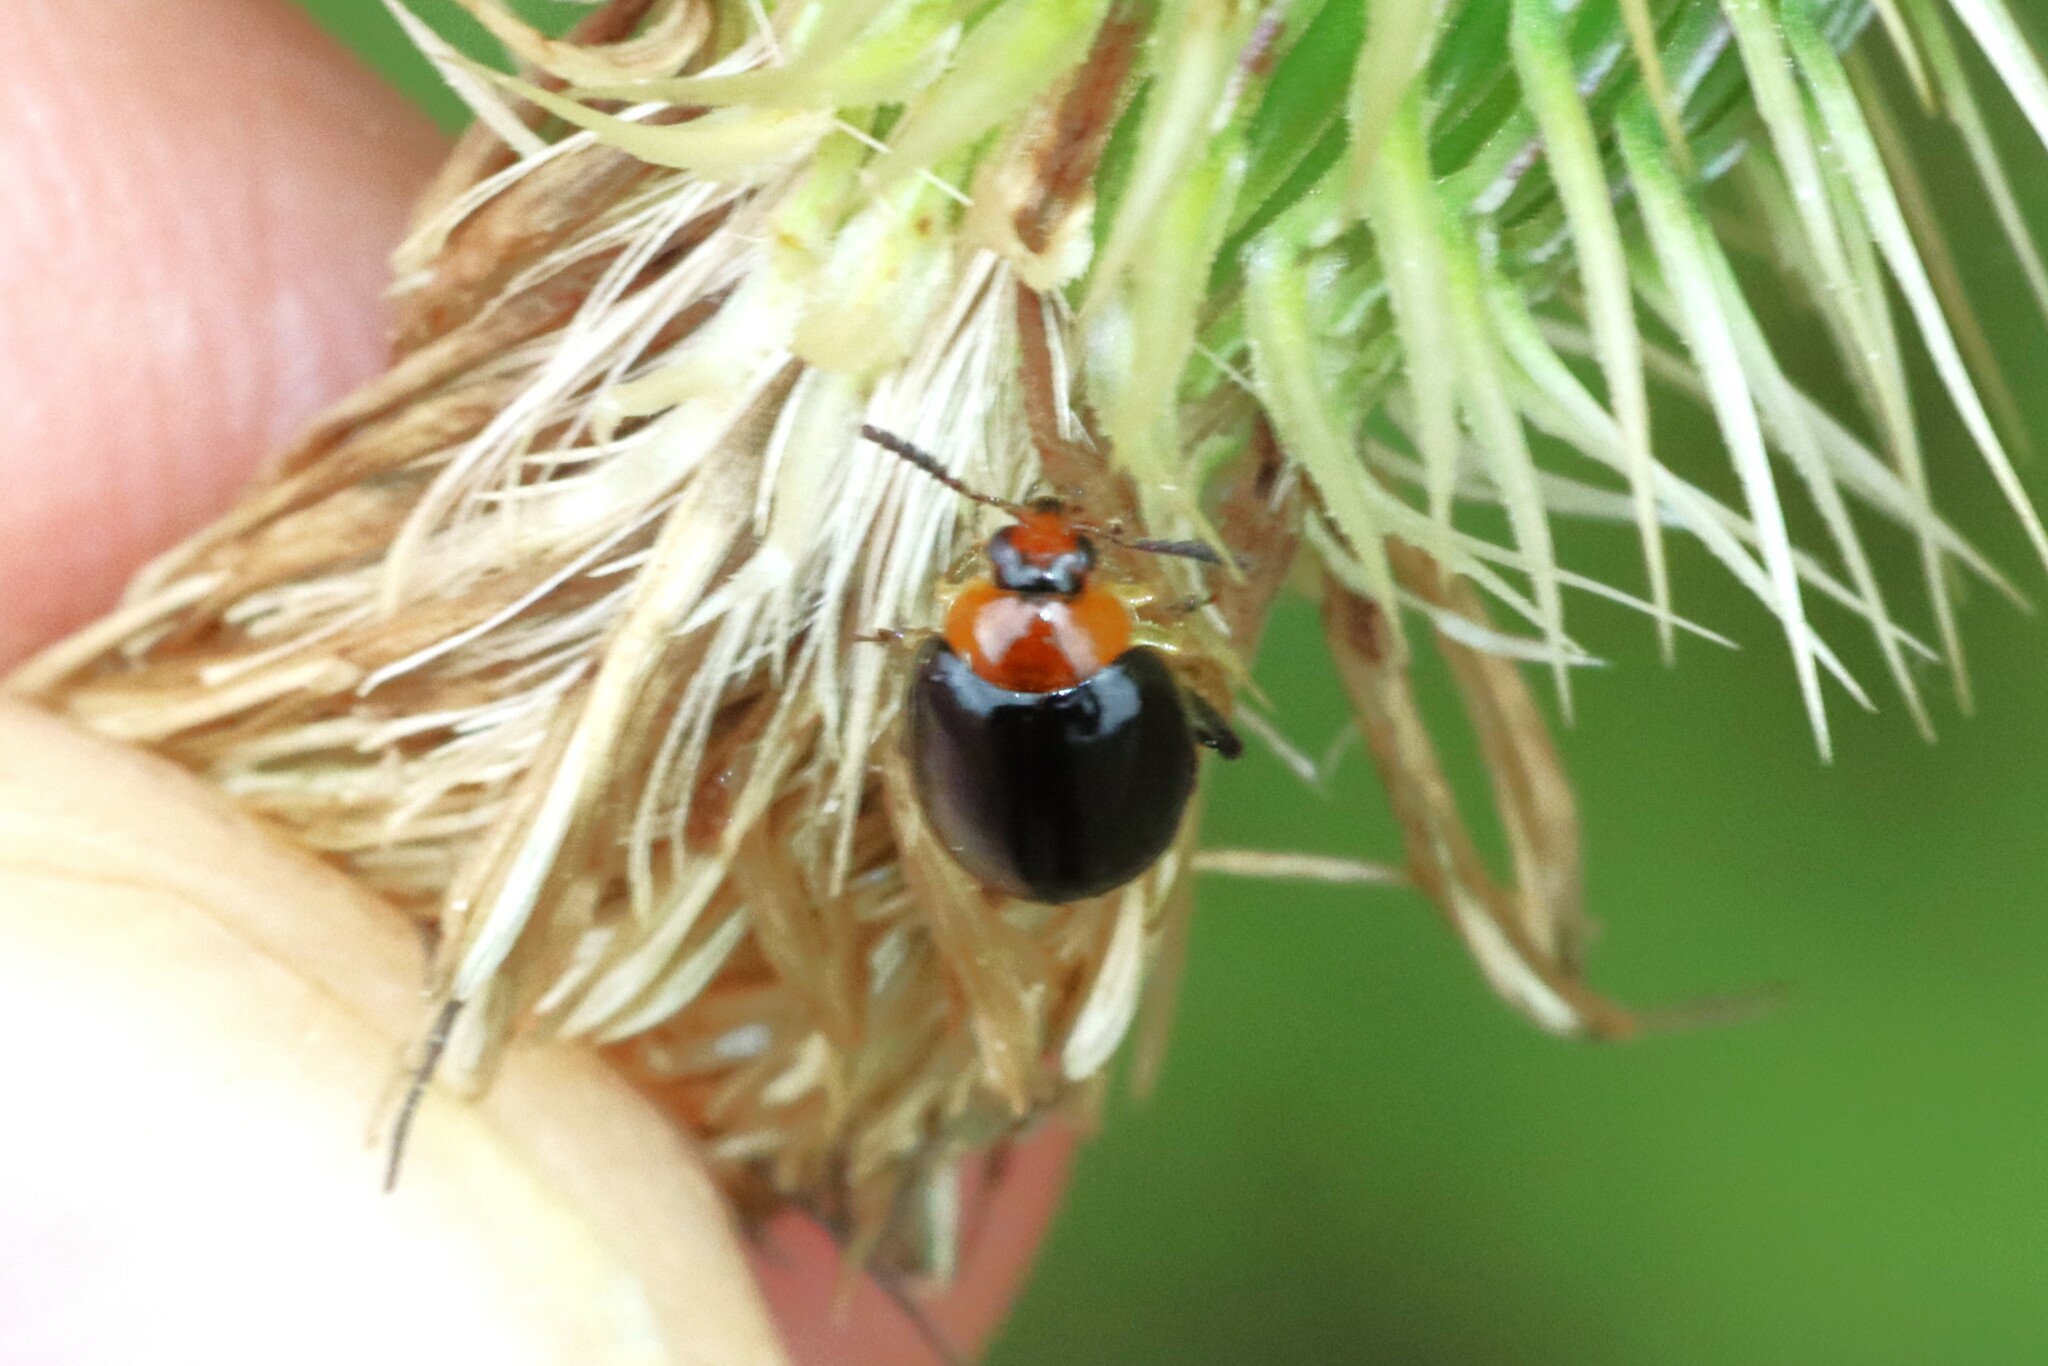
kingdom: Animalia
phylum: Arthropoda
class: Insecta
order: Coleoptera
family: Chrysomelidae
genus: Nonarthra
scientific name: Nonarthra
